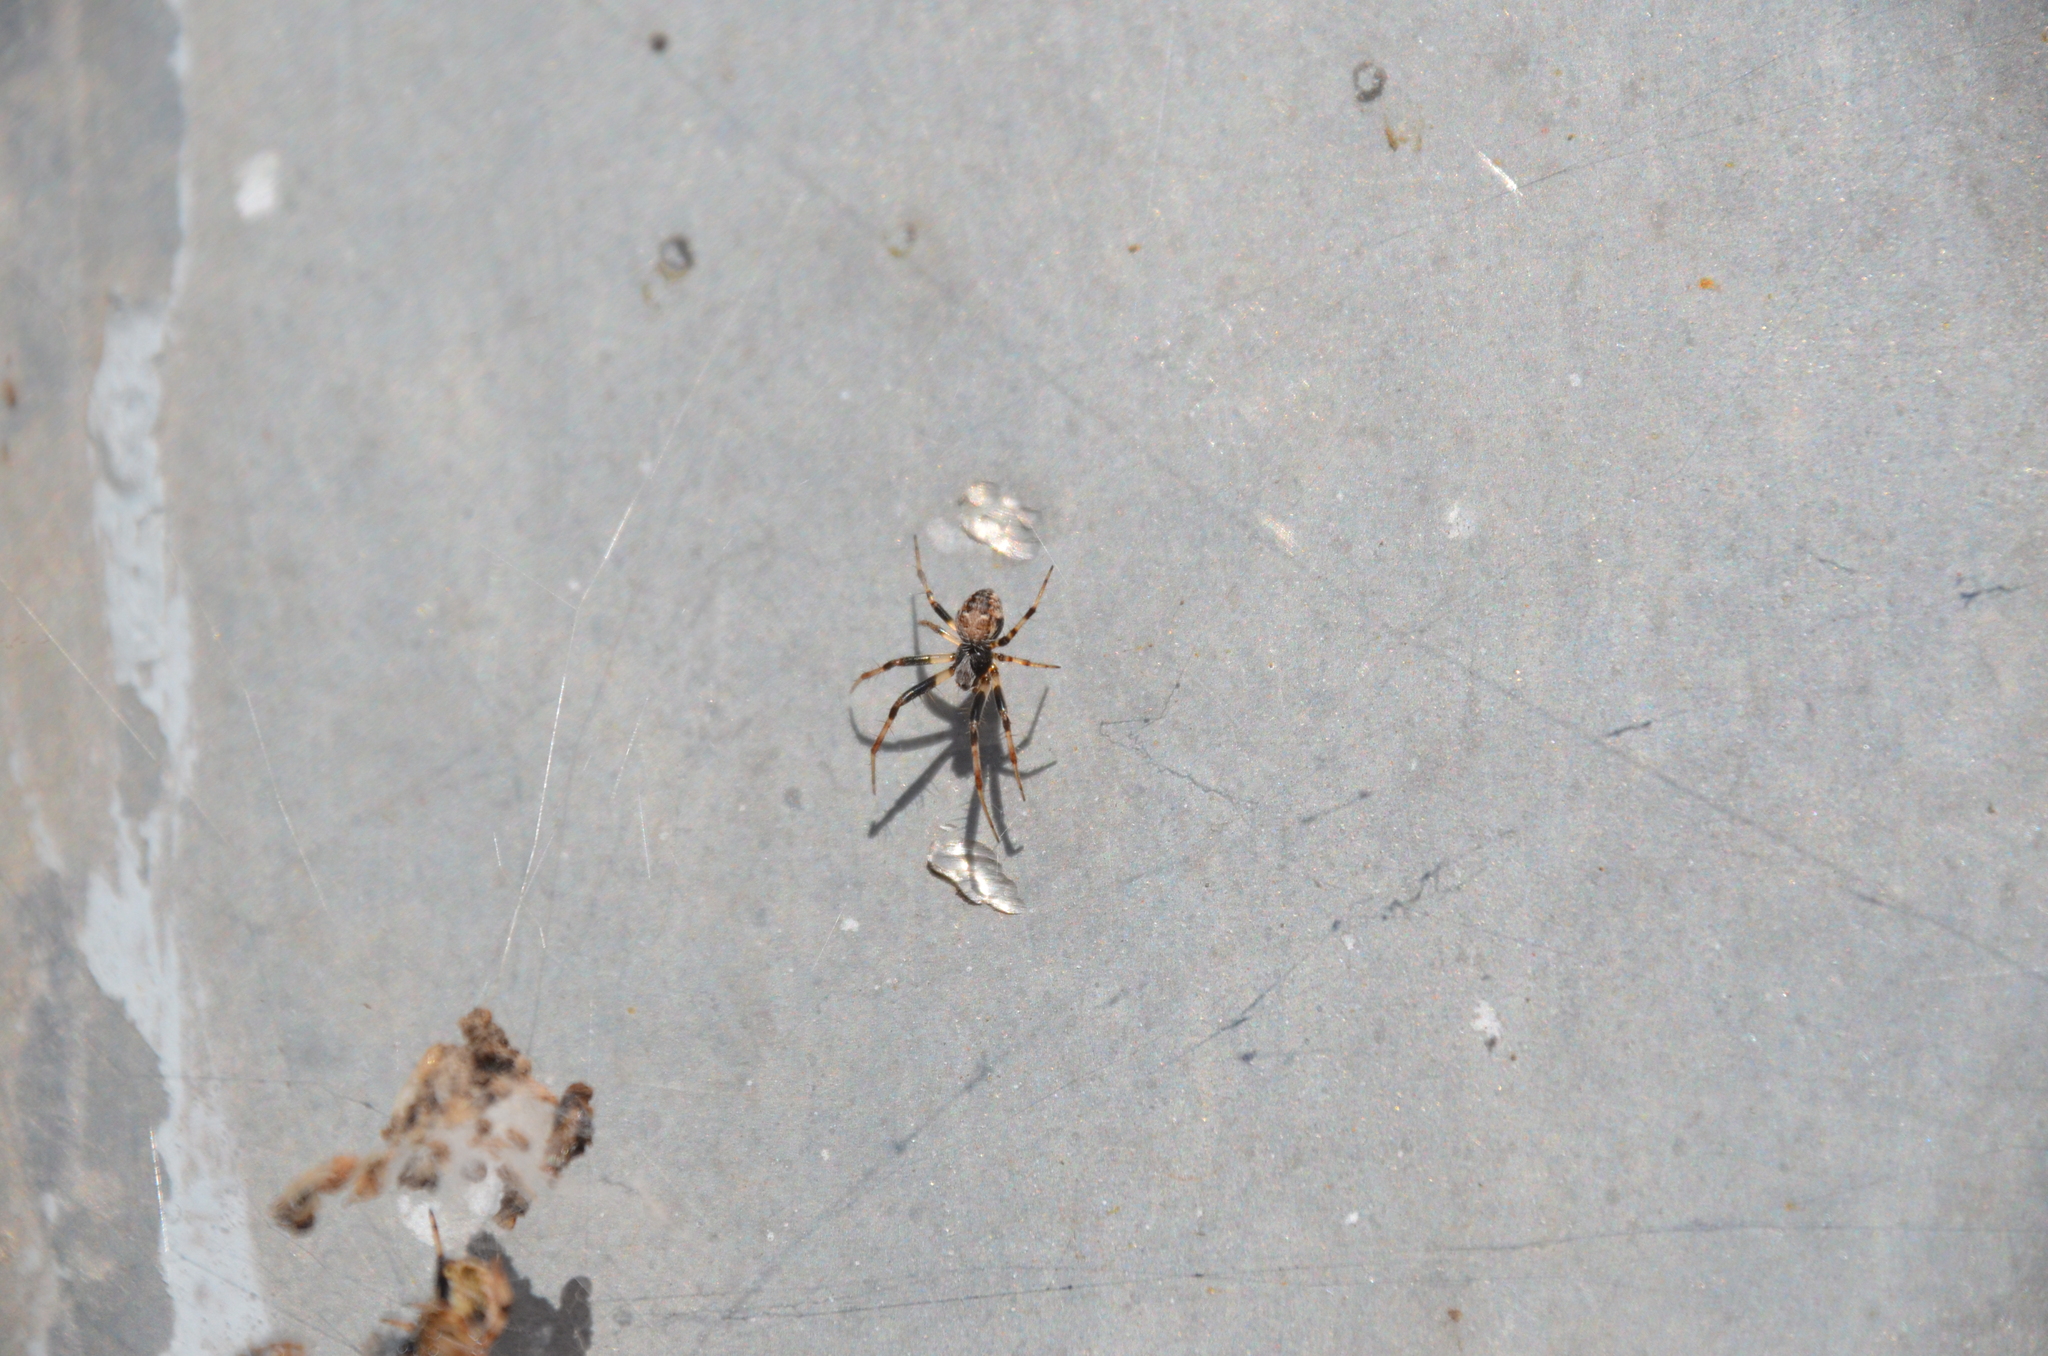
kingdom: Animalia
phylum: Arthropoda
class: Arachnida
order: Araneae
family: Araneidae
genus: Metepeira
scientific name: Metepeira
